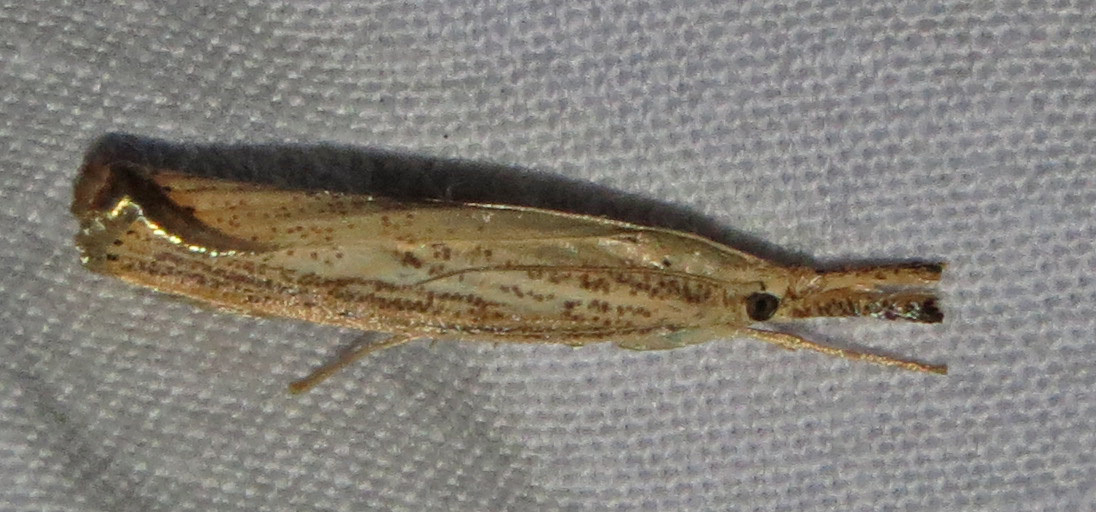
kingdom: Animalia
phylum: Arthropoda
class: Insecta
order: Lepidoptera
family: Crambidae
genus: Agriphila
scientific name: Agriphila vulgivagellus
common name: Vagabond crambus moth
